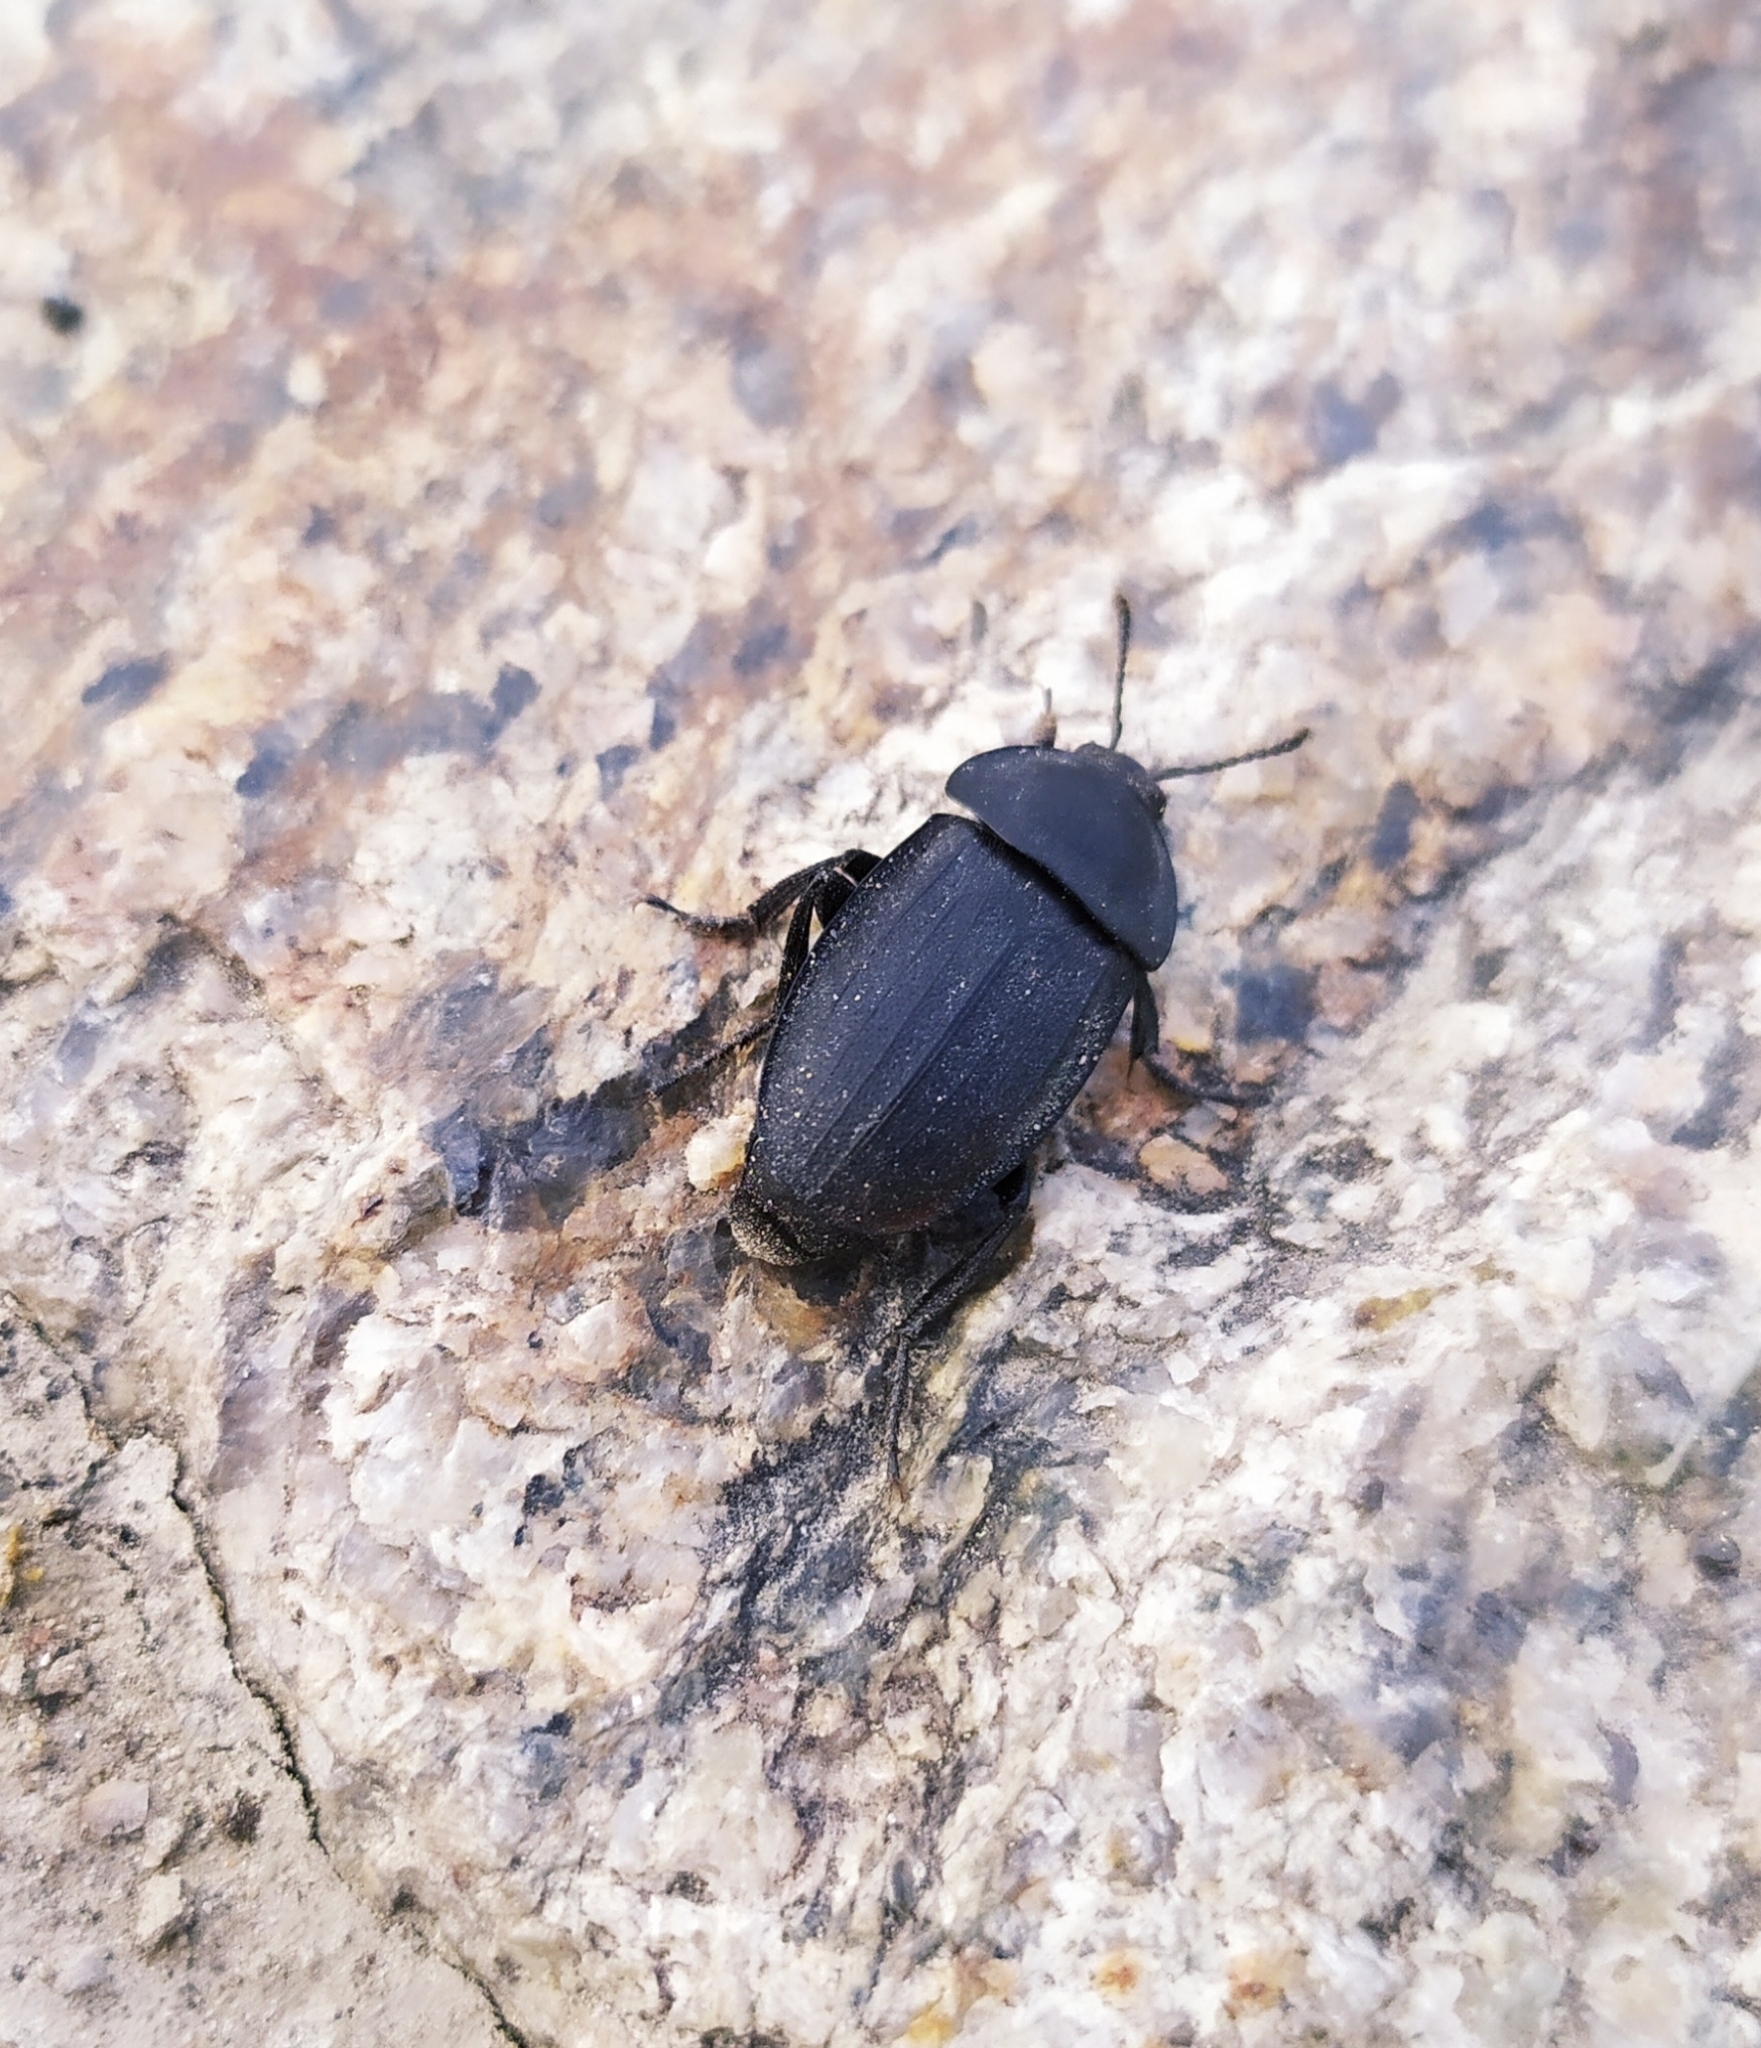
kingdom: Animalia
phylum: Arthropoda
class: Insecta
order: Coleoptera
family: Staphylinidae
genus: Silpha
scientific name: Silpha obscura
